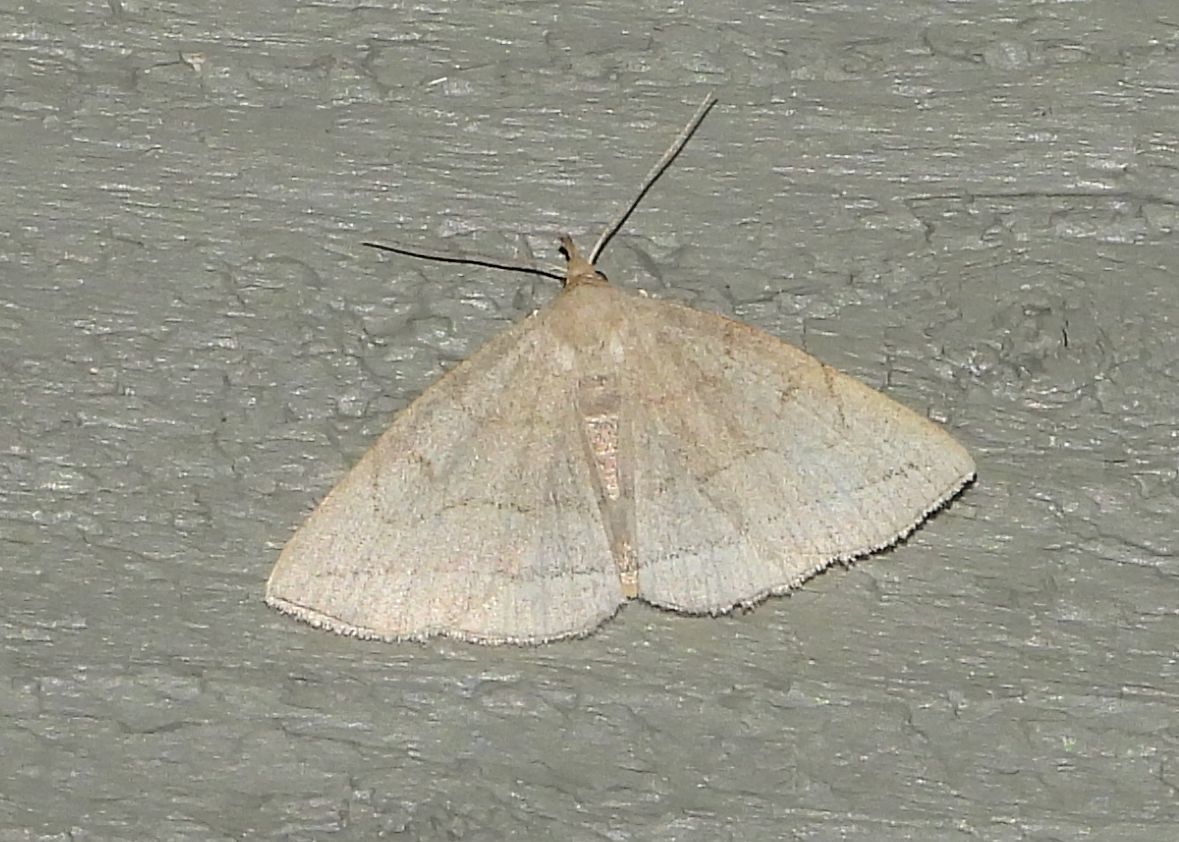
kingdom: Animalia
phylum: Arthropoda
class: Insecta
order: Lepidoptera
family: Erebidae
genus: Zanclognatha
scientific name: Zanclognatha pedipilalis
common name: Grayish fan-foot
